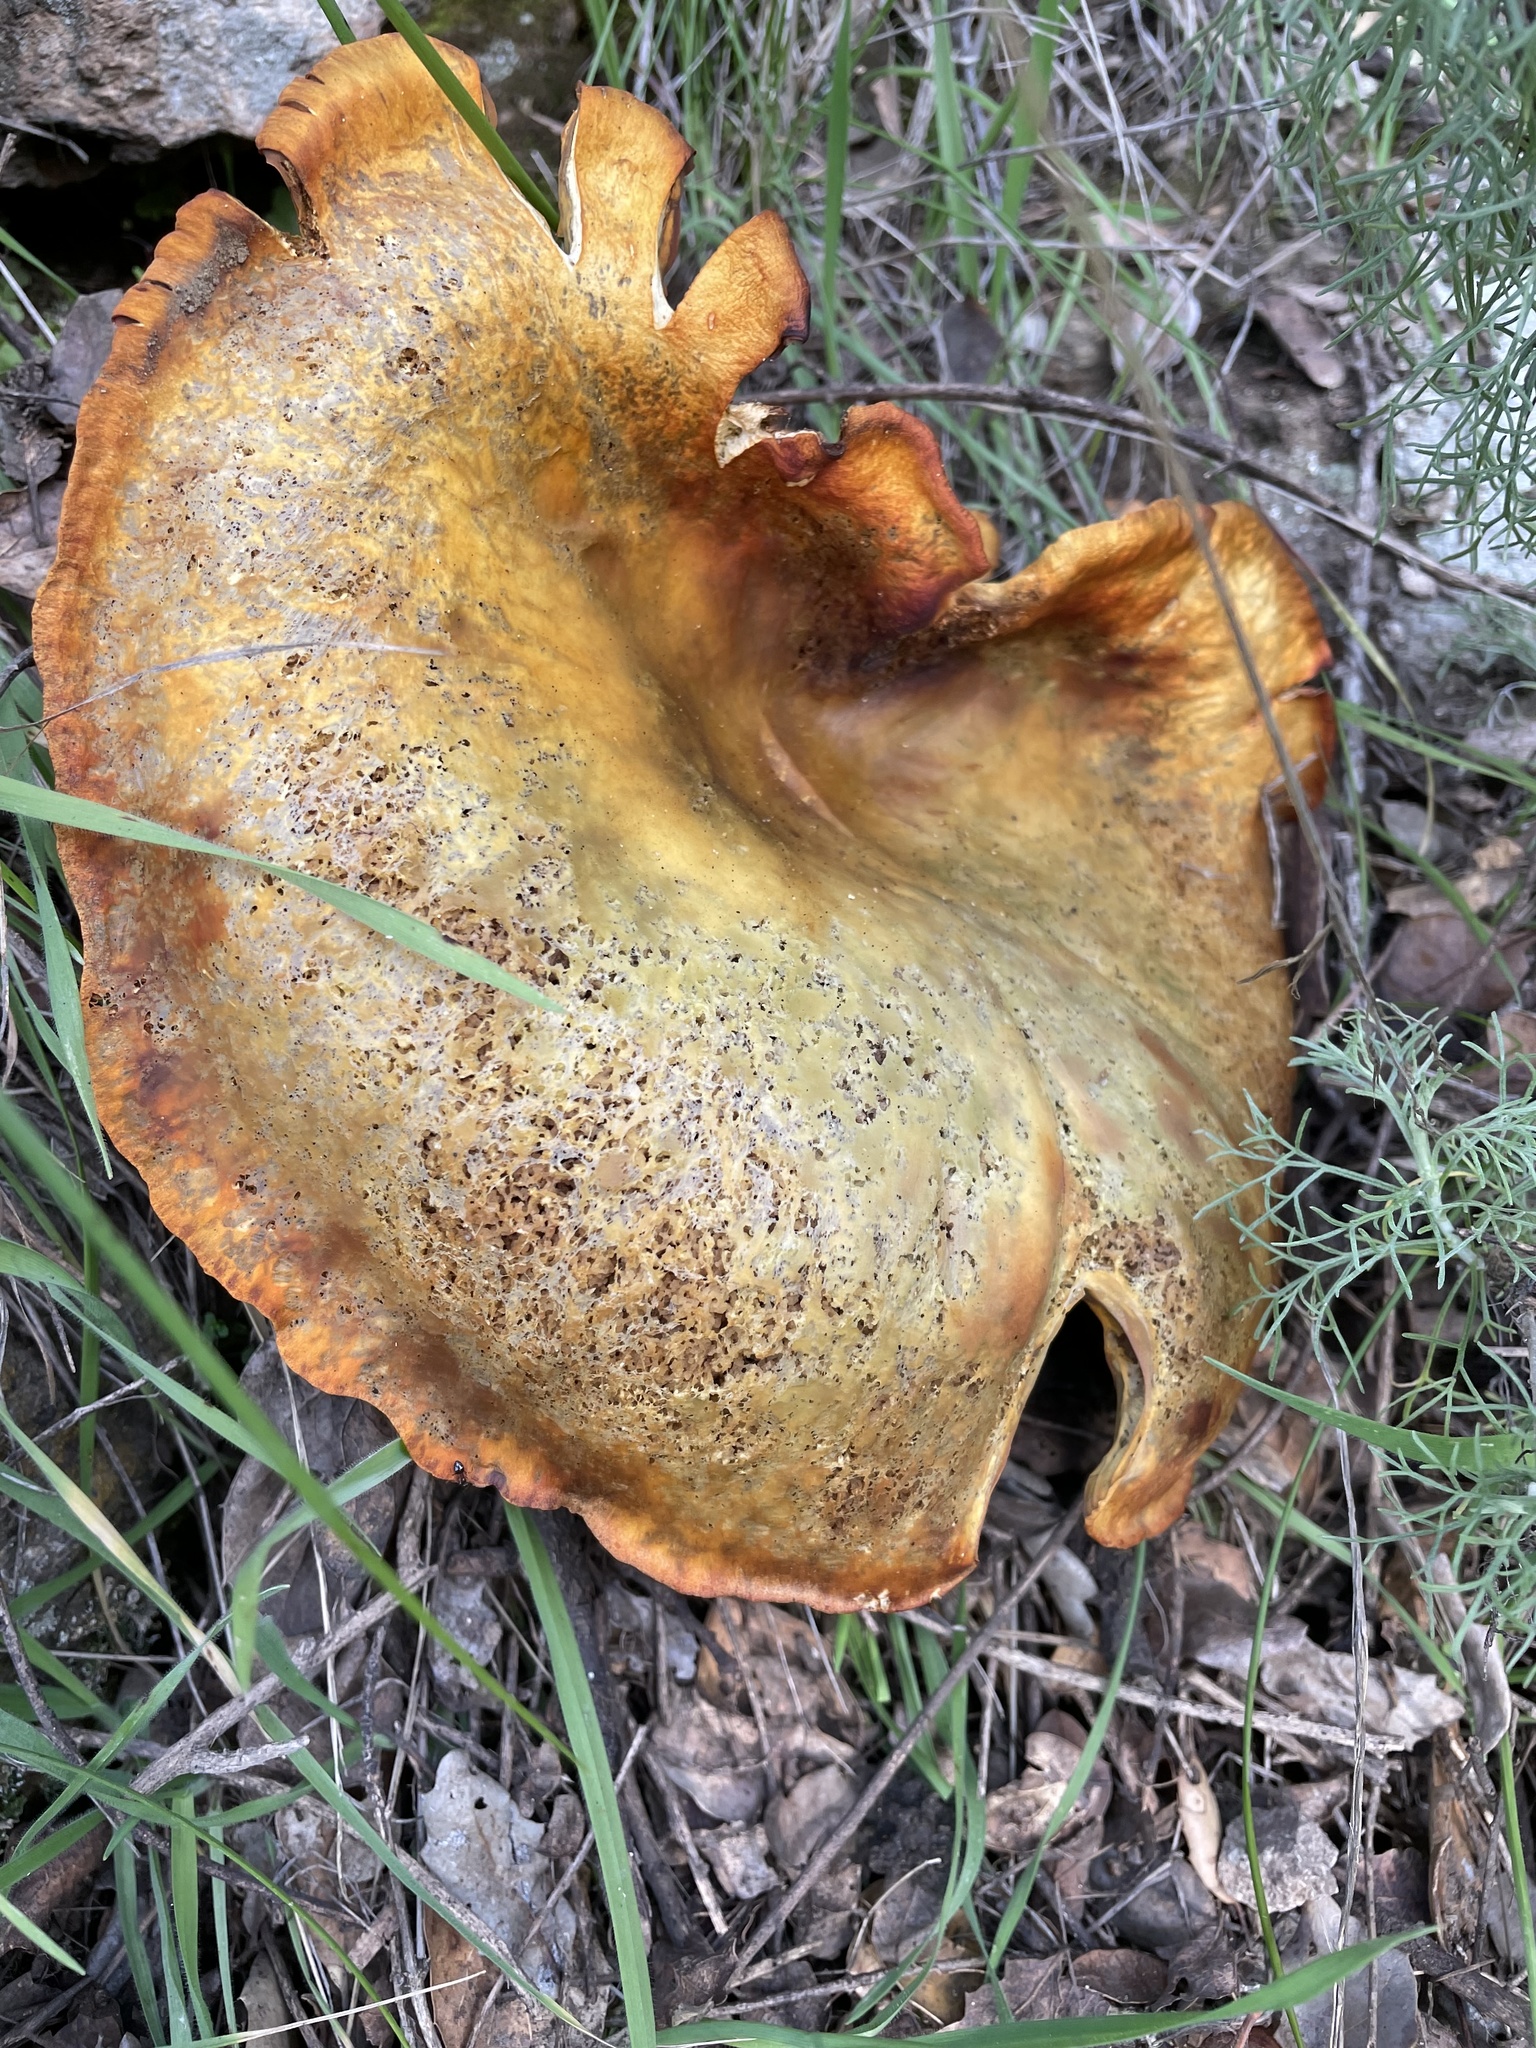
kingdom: Fungi
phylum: Basidiomycota
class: Agaricomycetes
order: Agaricales
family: Omphalotaceae
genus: Omphalotus
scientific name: Omphalotus olivascens
